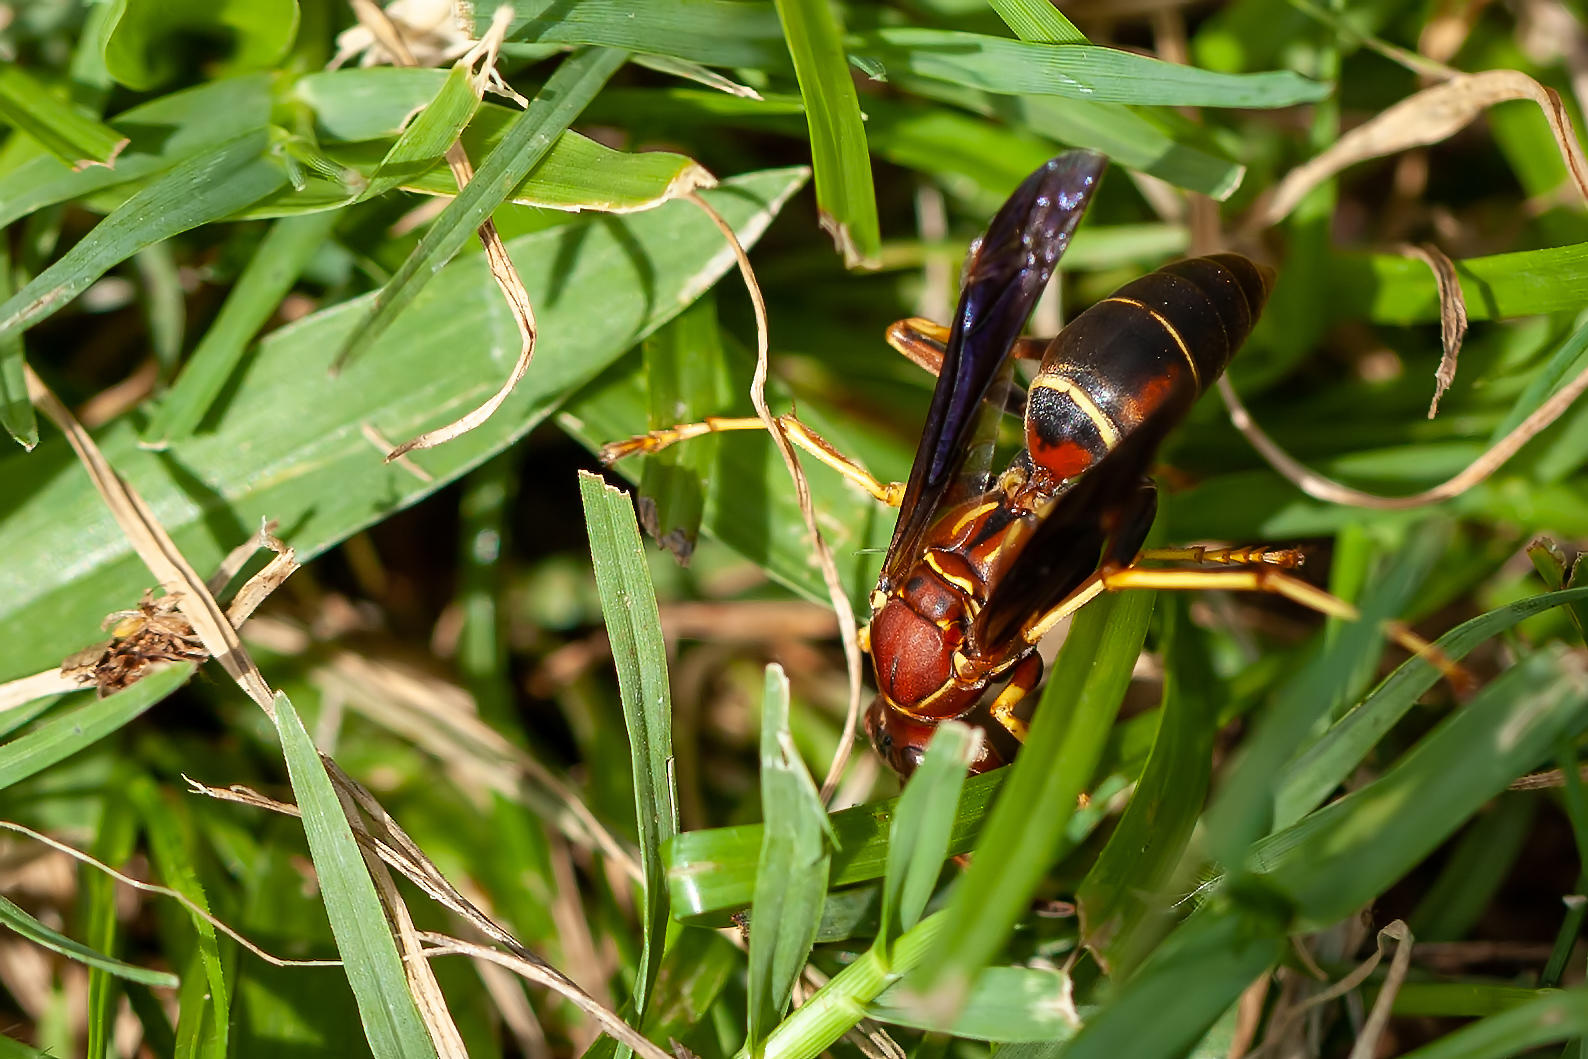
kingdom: Animalia
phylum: Arthropoda
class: Insecta
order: Hymenoptera
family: Eumenidae
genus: Polistes
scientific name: Polistes fuscatus
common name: Dark paper wasp
